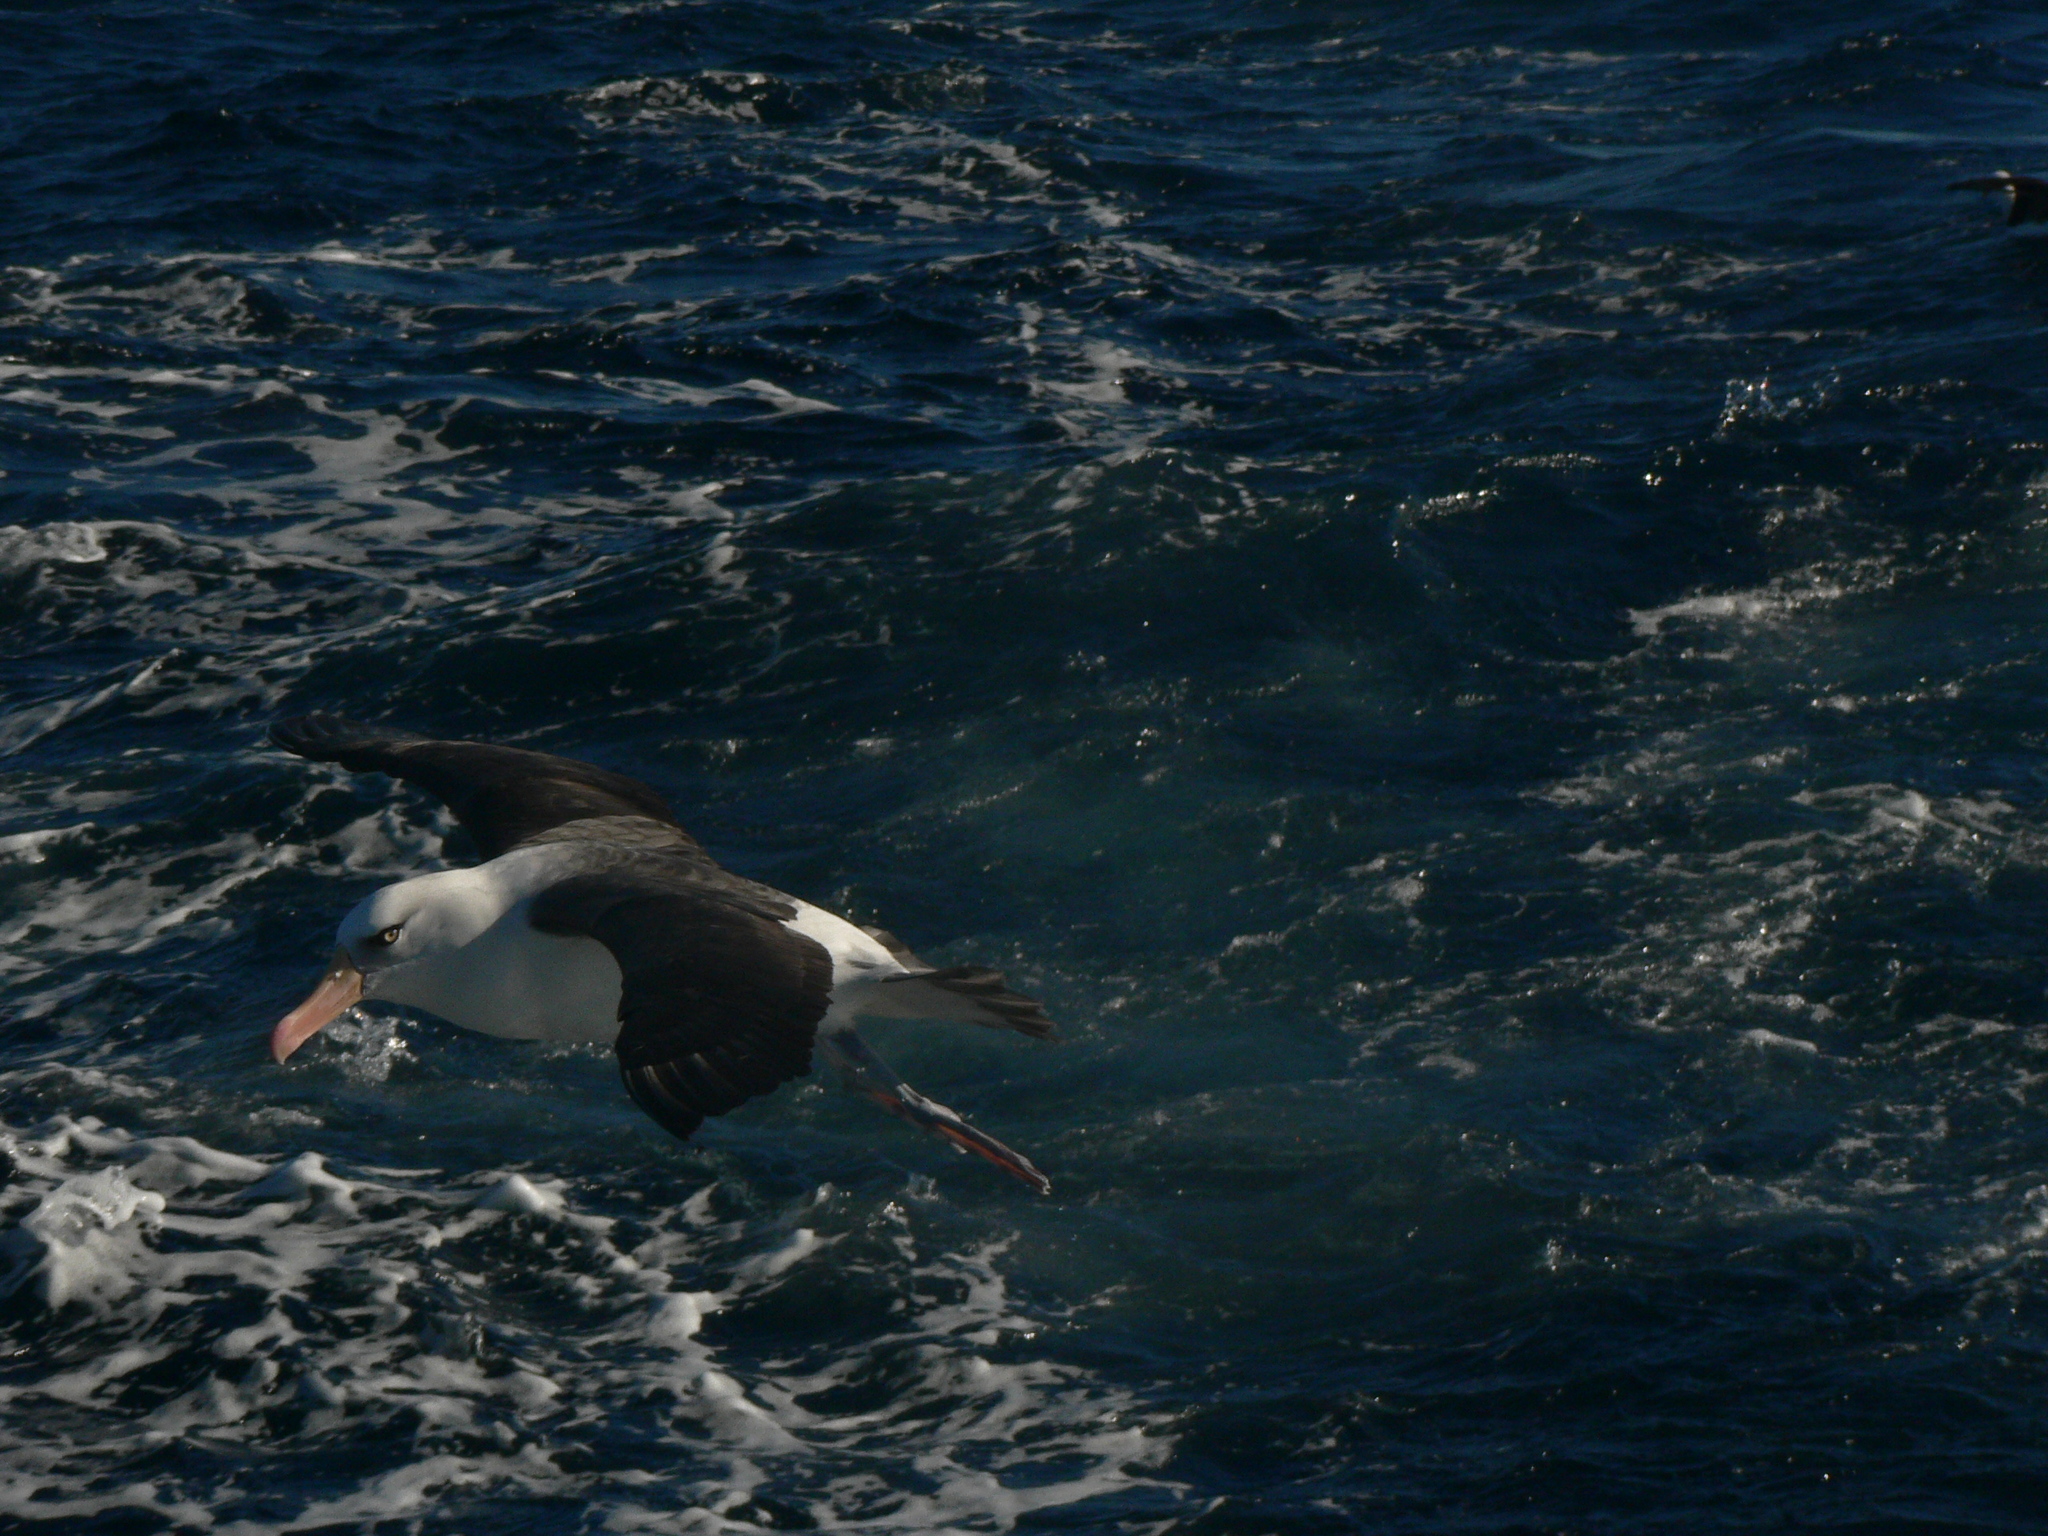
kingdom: Animalia
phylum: Chordata
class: Aves
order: Procellariiformes
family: Diomedeidae
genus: Thalassarche
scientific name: Thalassarche impavida
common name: Campbell albatross
